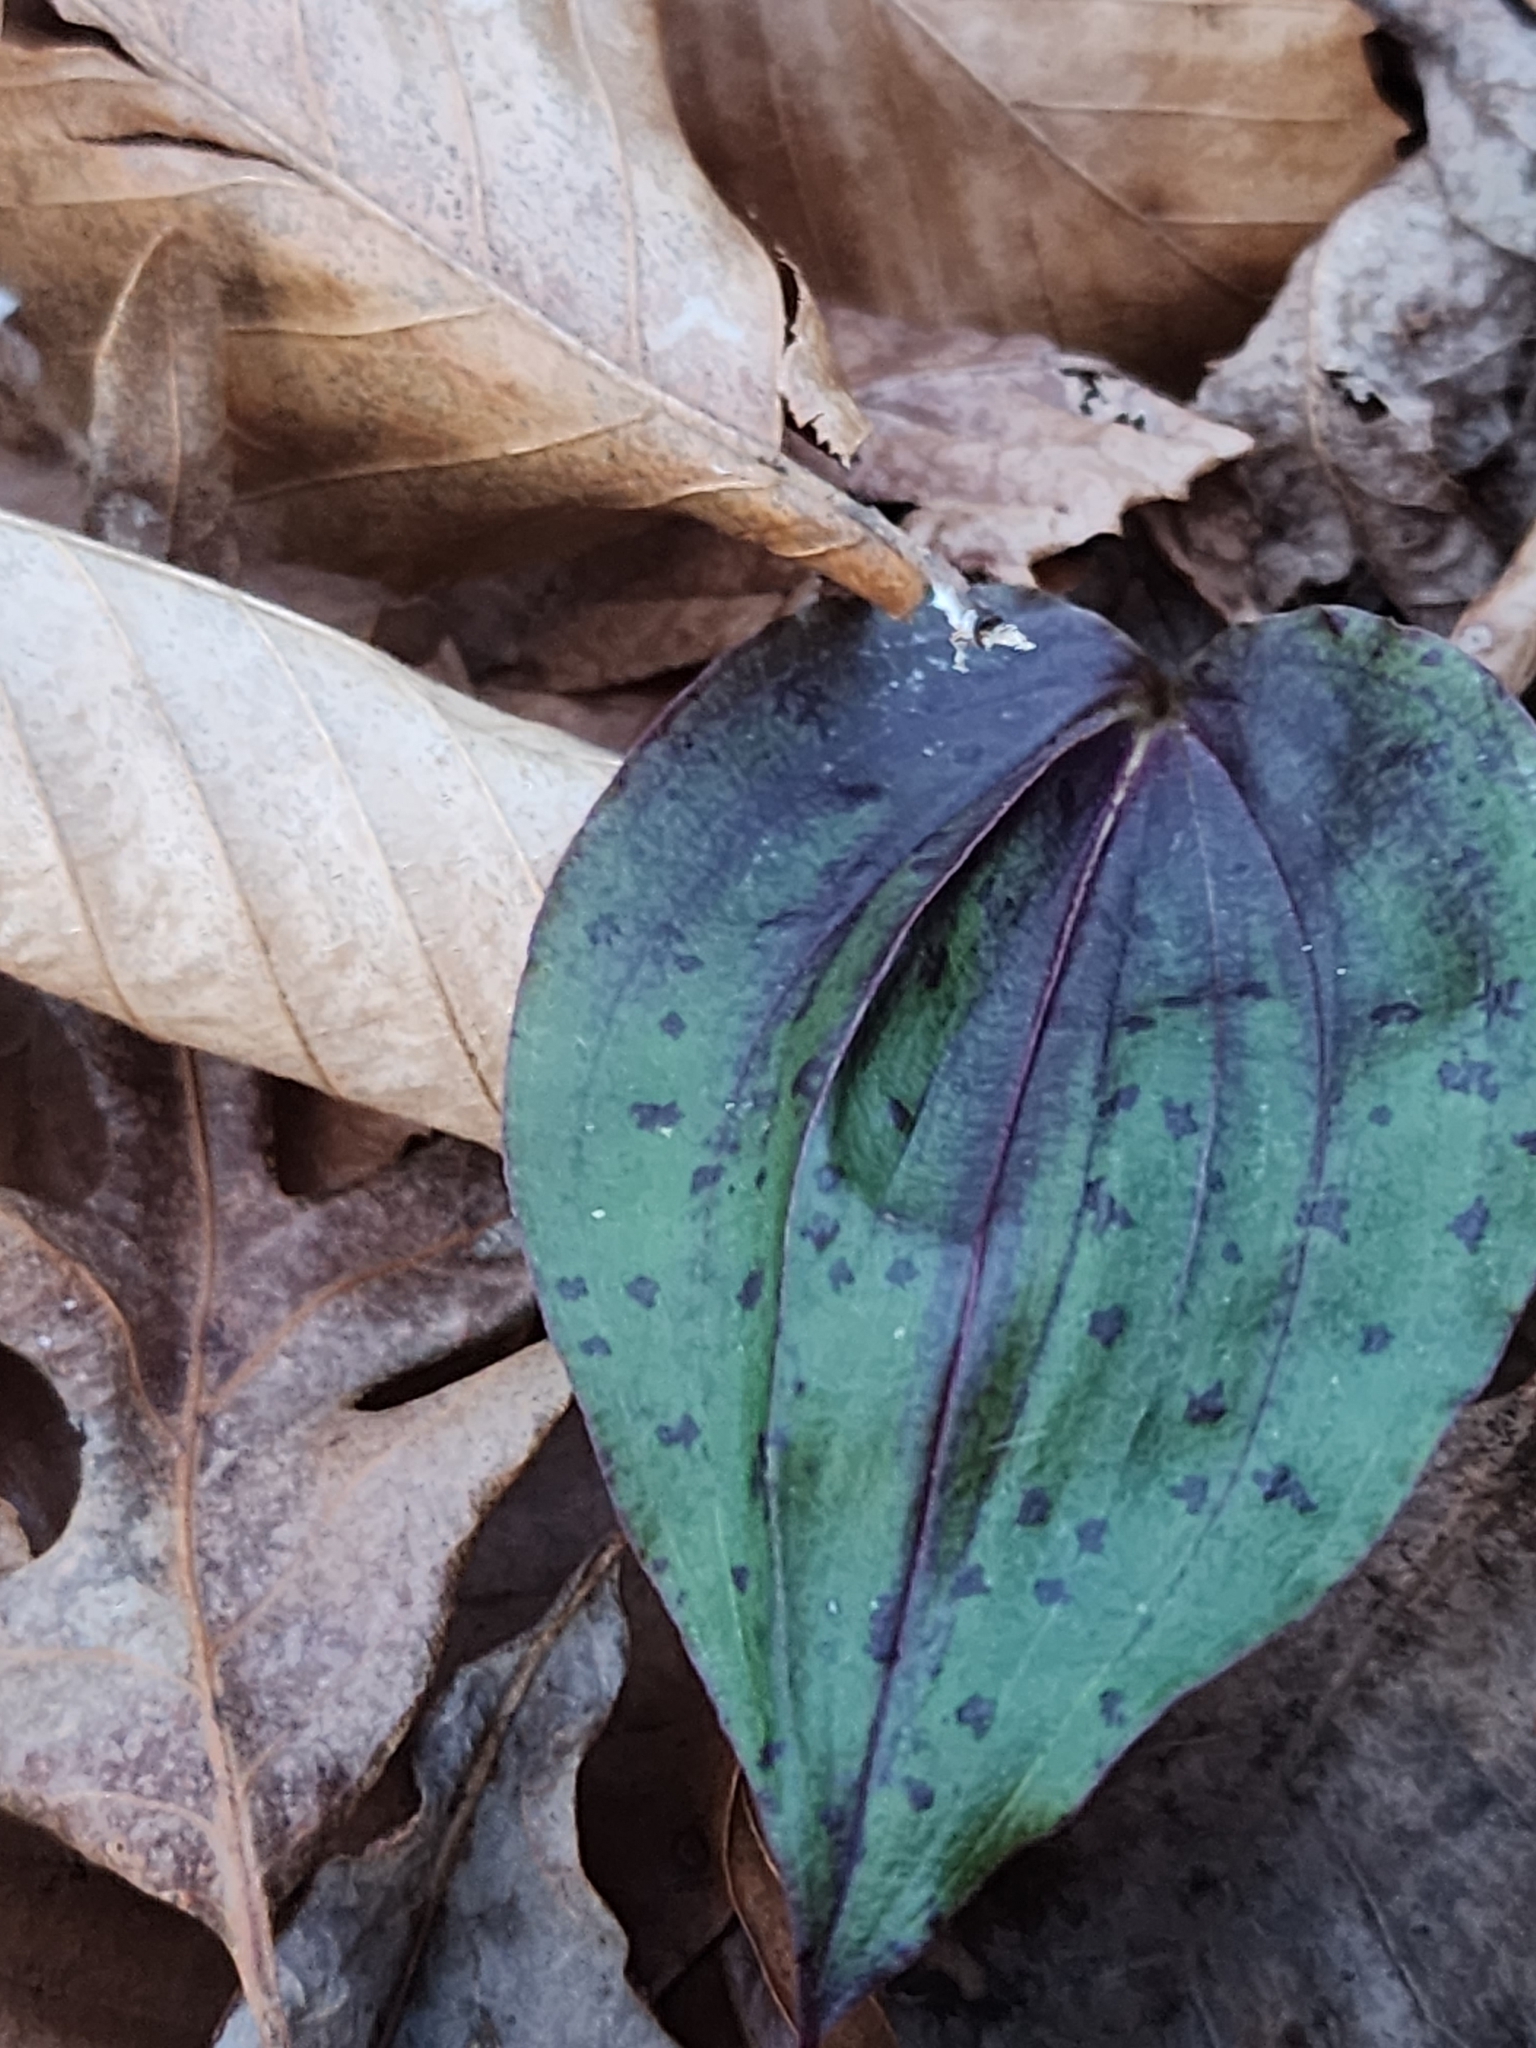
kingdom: Plantae
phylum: Tracheophyta
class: Liliopsida
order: Asparagales
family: Orchidaceae
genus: Tipularia
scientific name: Tipularia discolor
